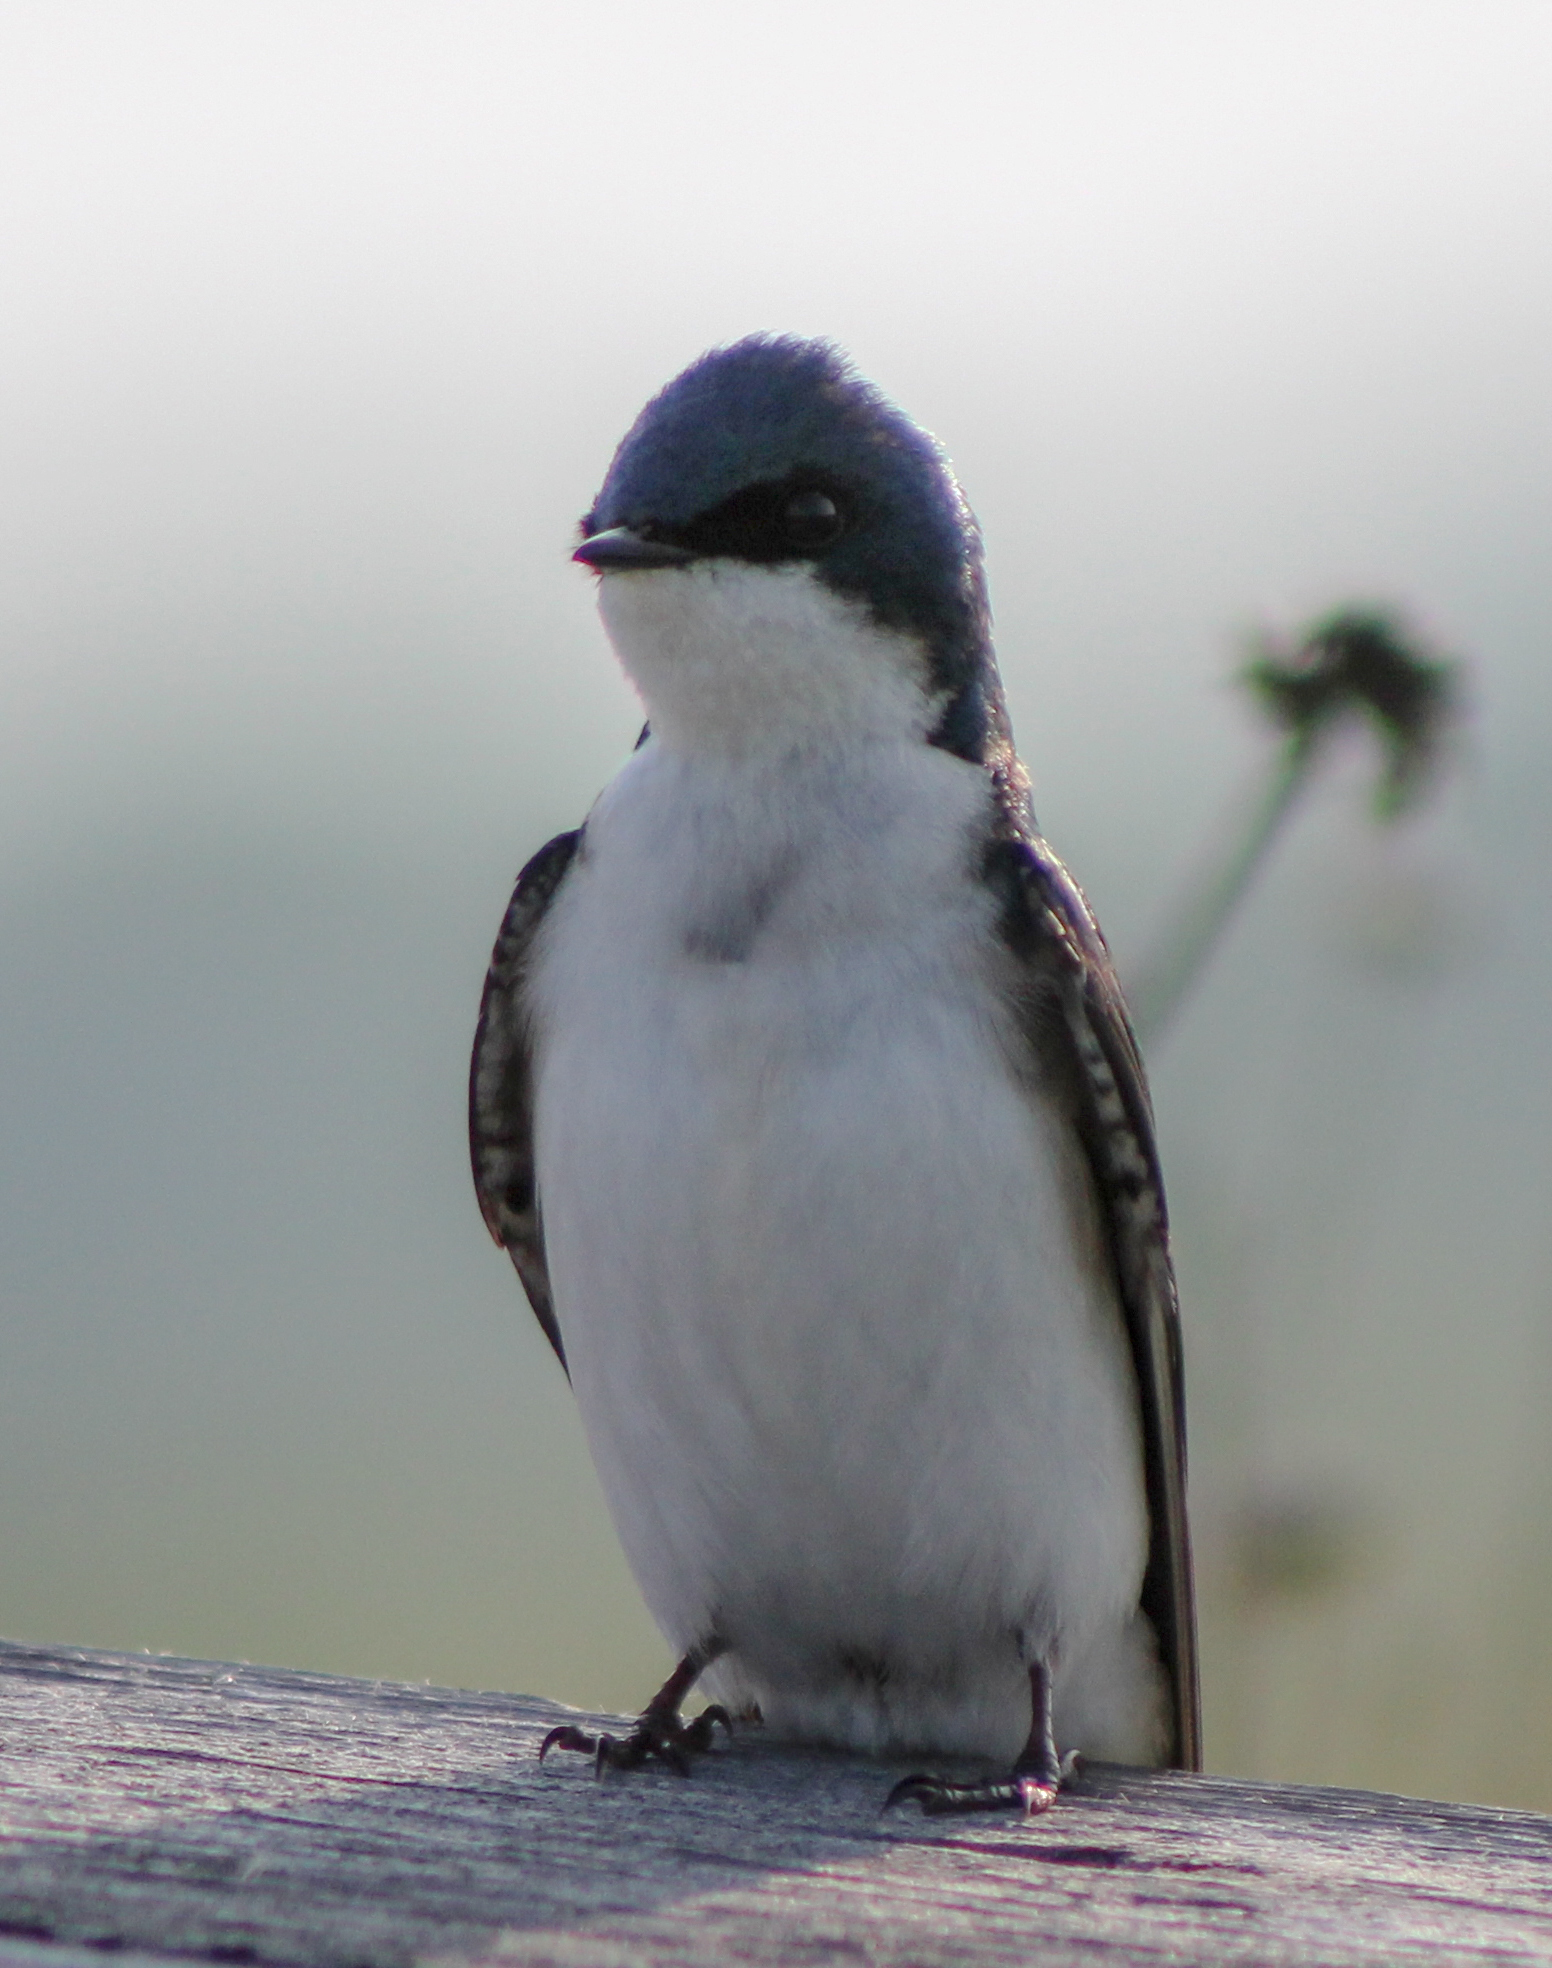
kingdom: Animalia
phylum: Chordata
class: Aves
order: Passeriformes
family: Hirundinidae
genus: Tachycineta
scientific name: Tachycineta bicolor
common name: Tree swallow
